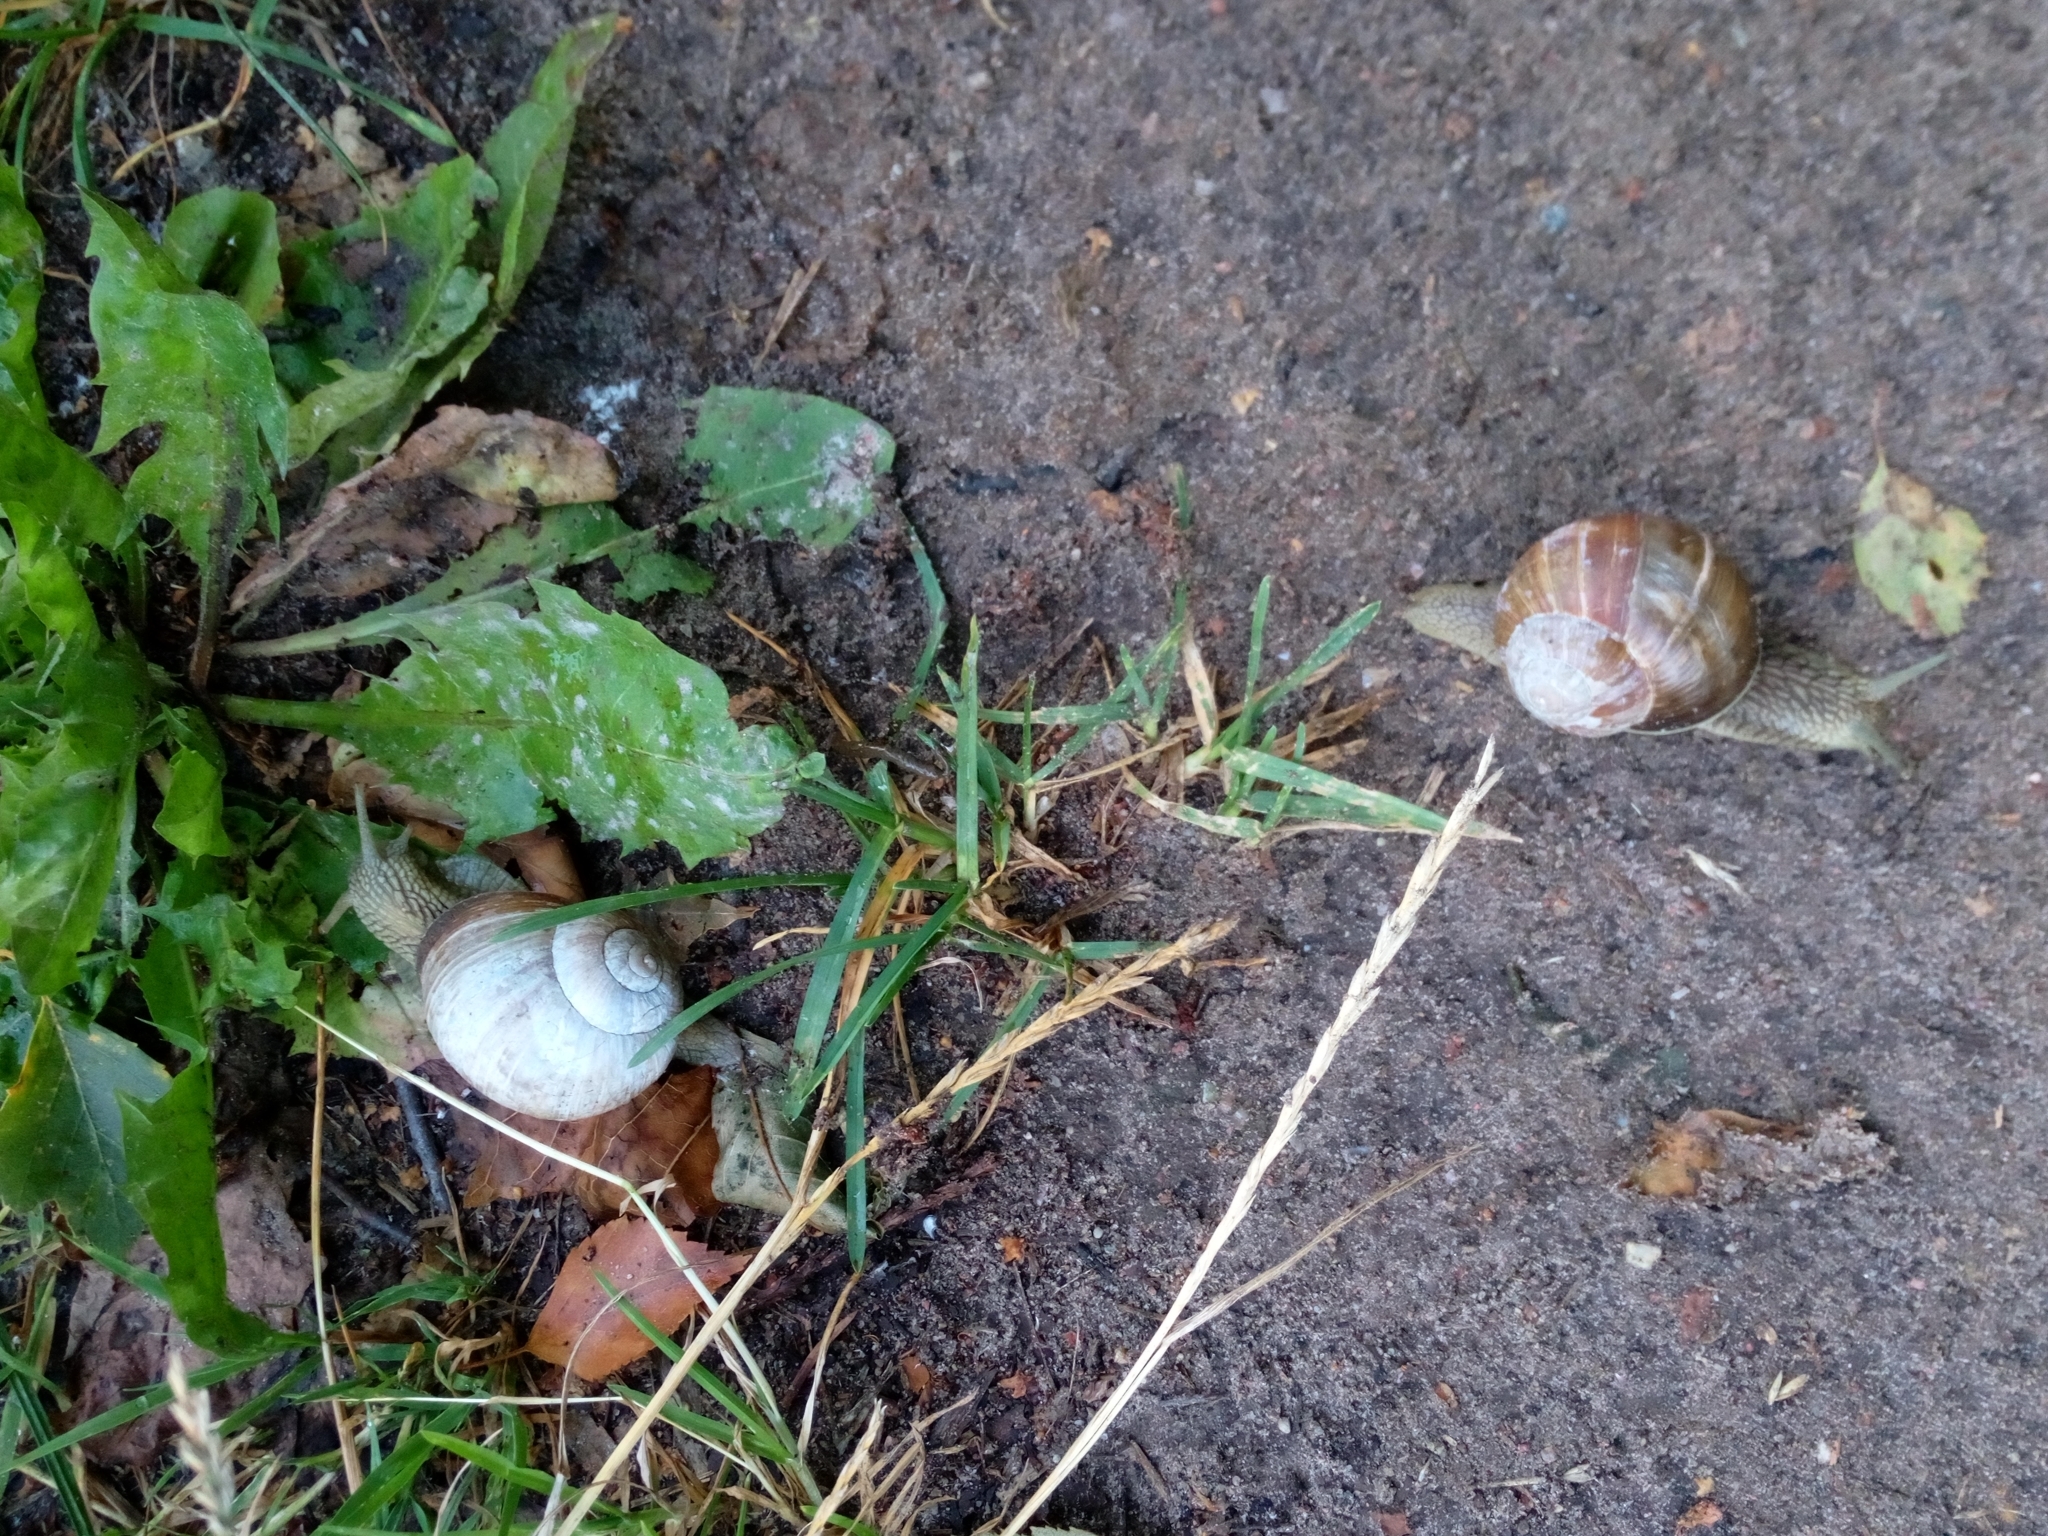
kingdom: Animalia
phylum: Mollusca
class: Gastropoda
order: Stylommatophora
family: Helicidae
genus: Helix
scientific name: Helix pomatia
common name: Roman snail
